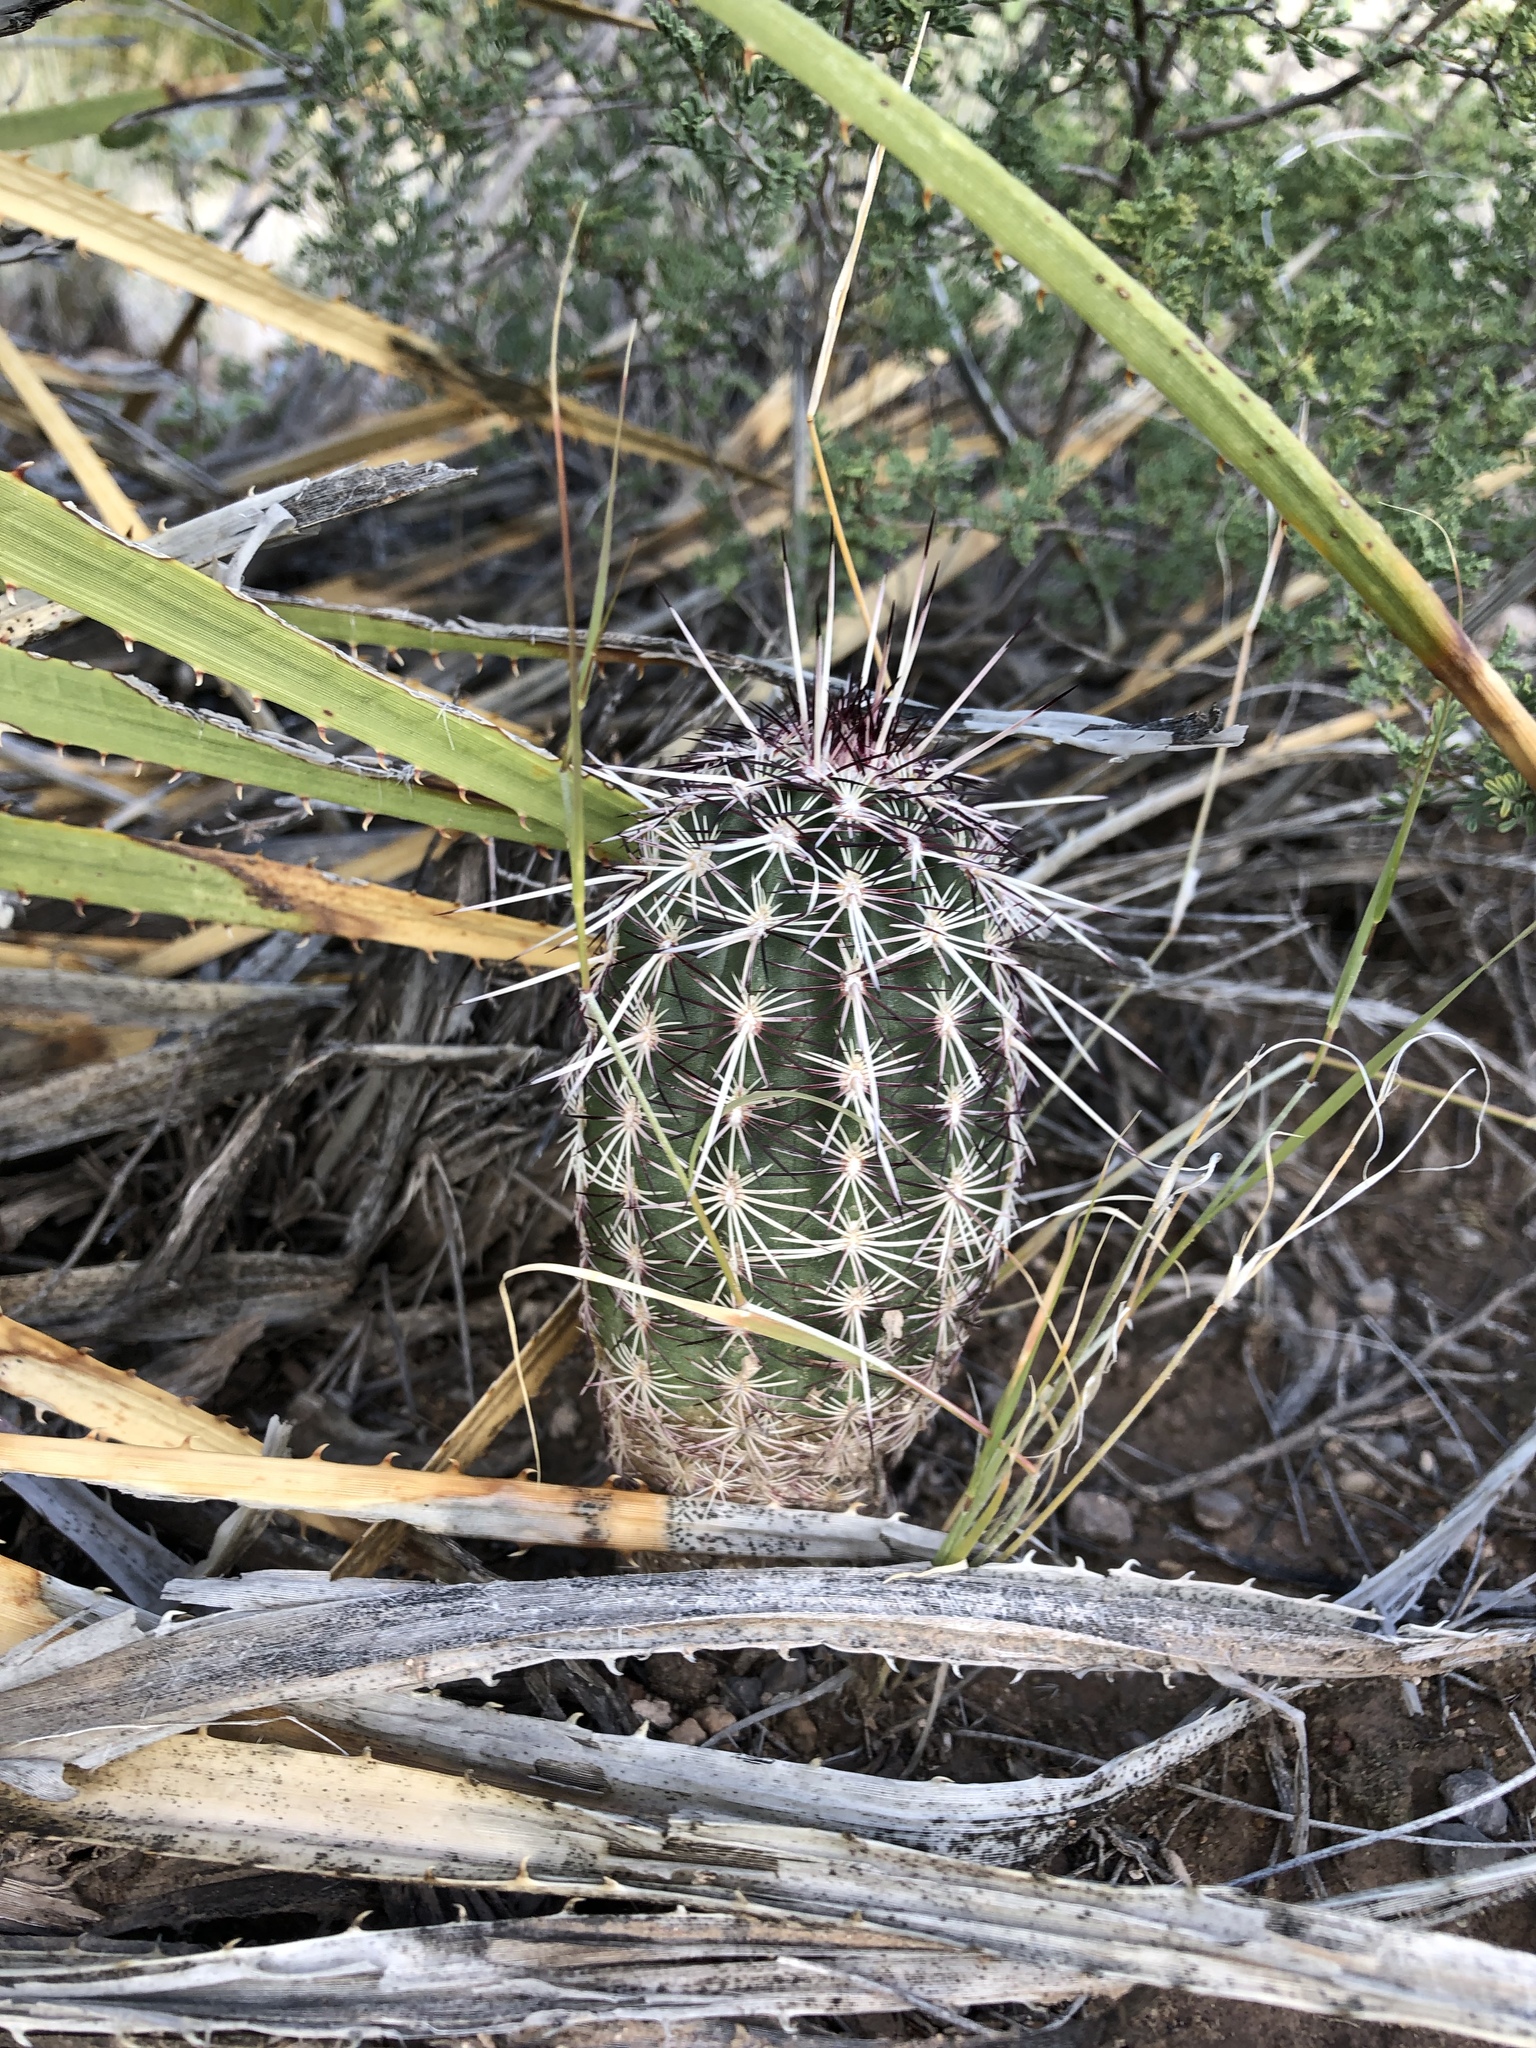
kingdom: Plantae
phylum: Tracheophyta
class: Magnoliopsida
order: Caryophyllales
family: Cactaceae
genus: Echinocereus
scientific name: Echinocereus viridiflorus
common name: Nylon hedgehog cactus
